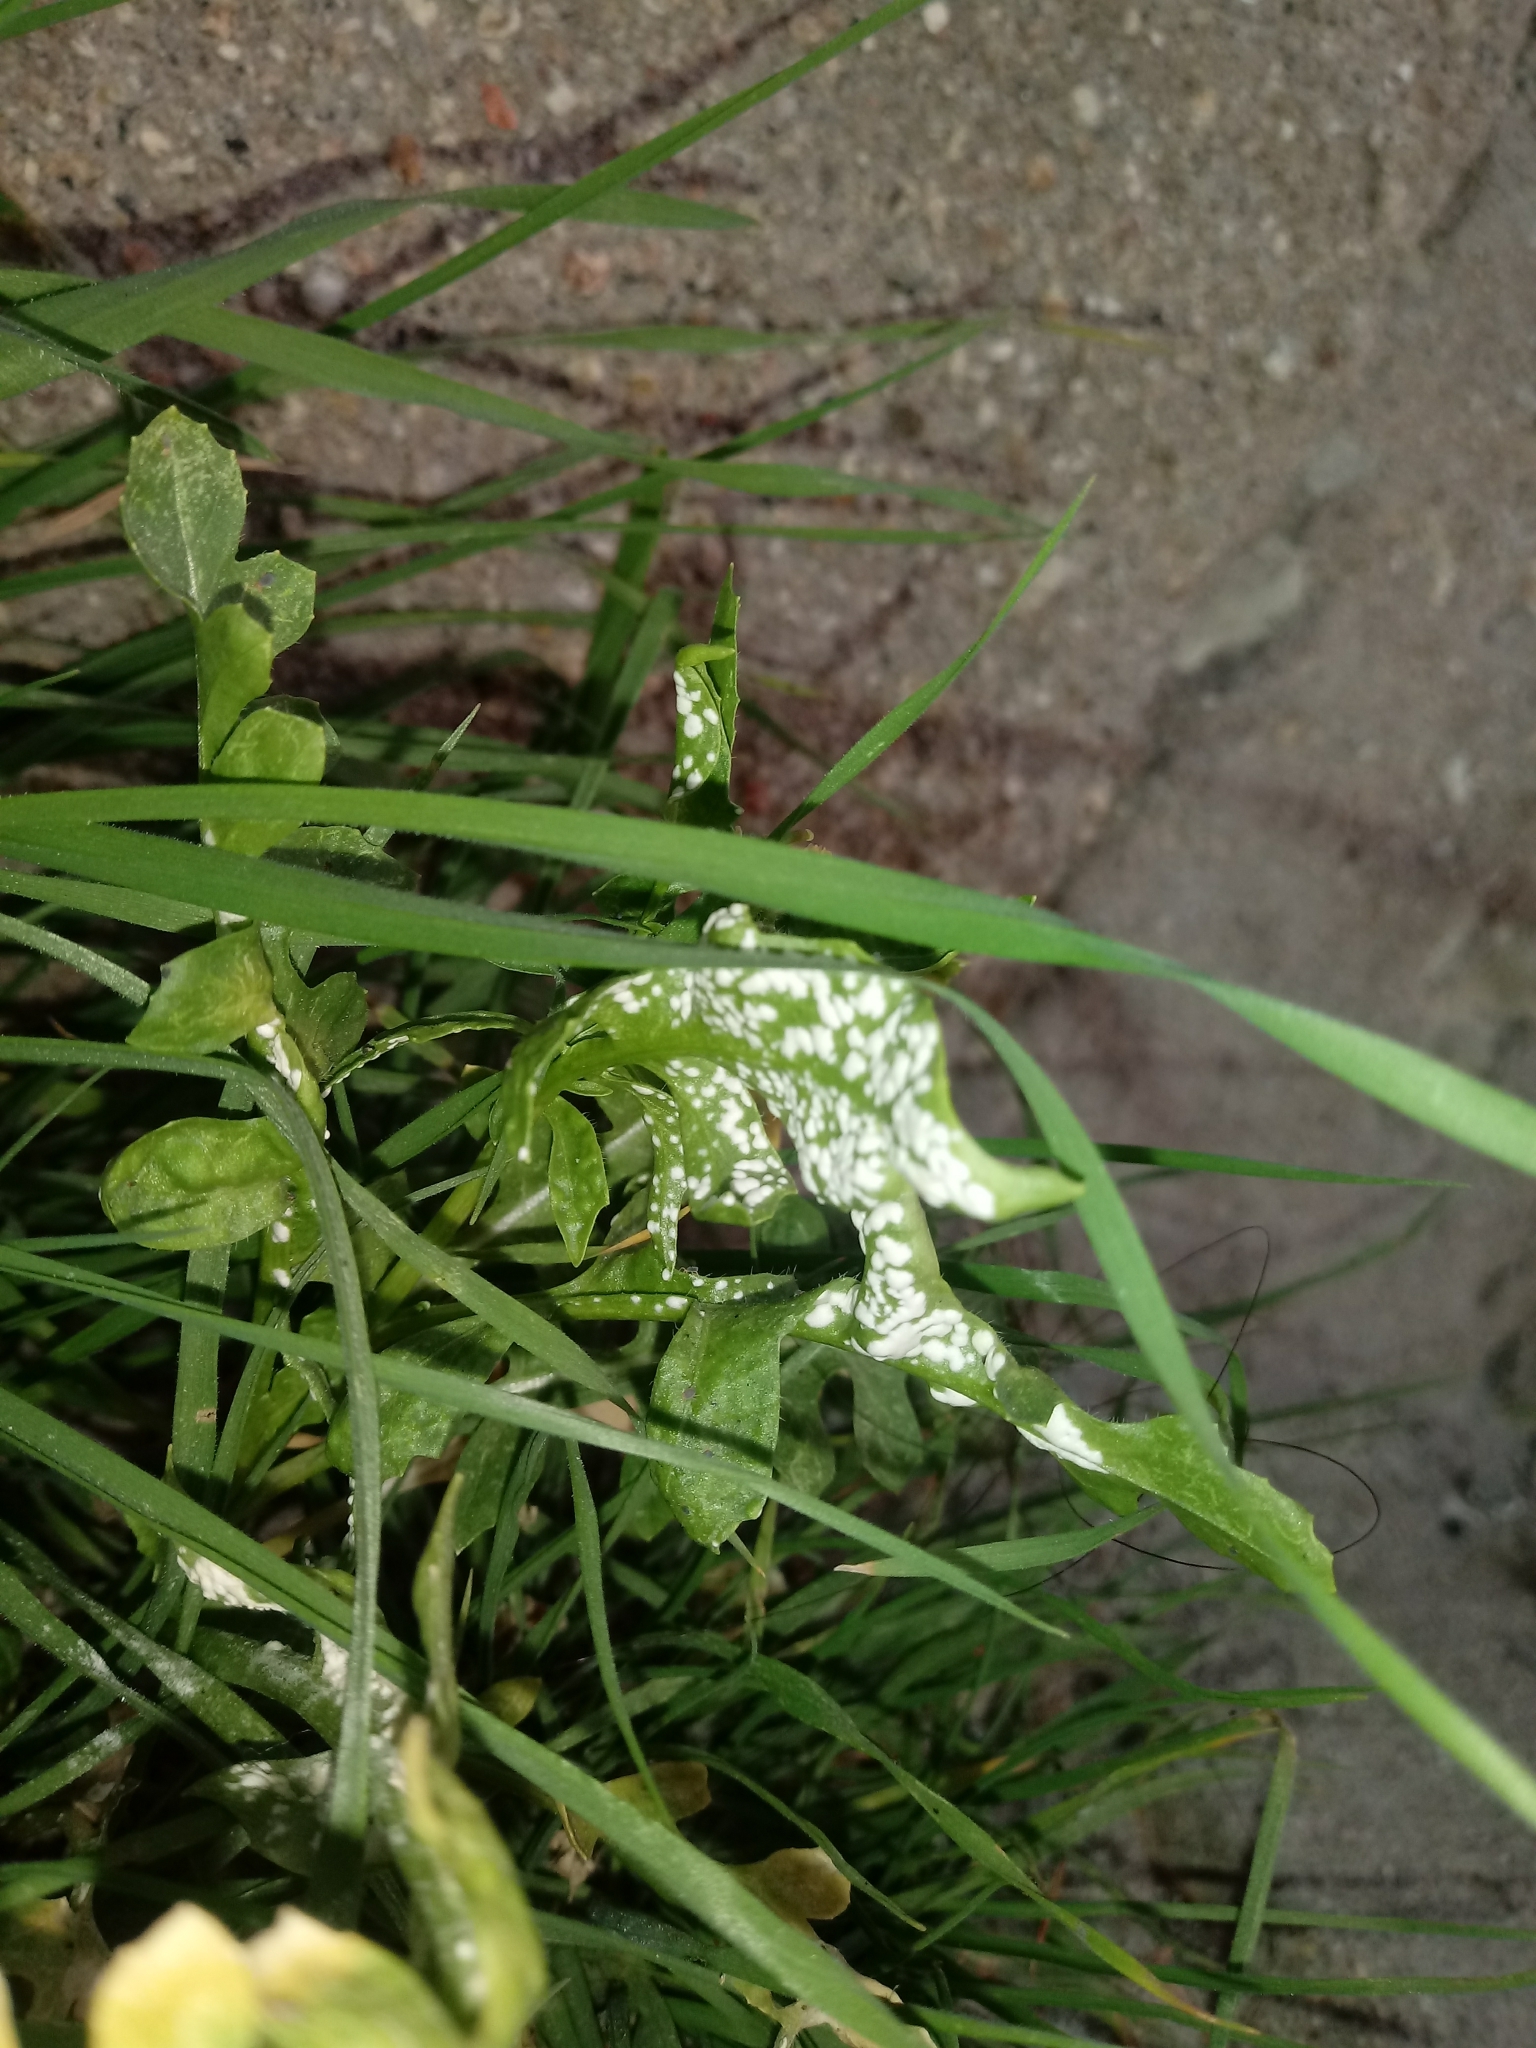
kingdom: Chromista
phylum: Oomycota
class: Peronosporea
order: Albuginales
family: Albuginaceae
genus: Albugo
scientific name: Albugo candida
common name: Crucifer white blister
